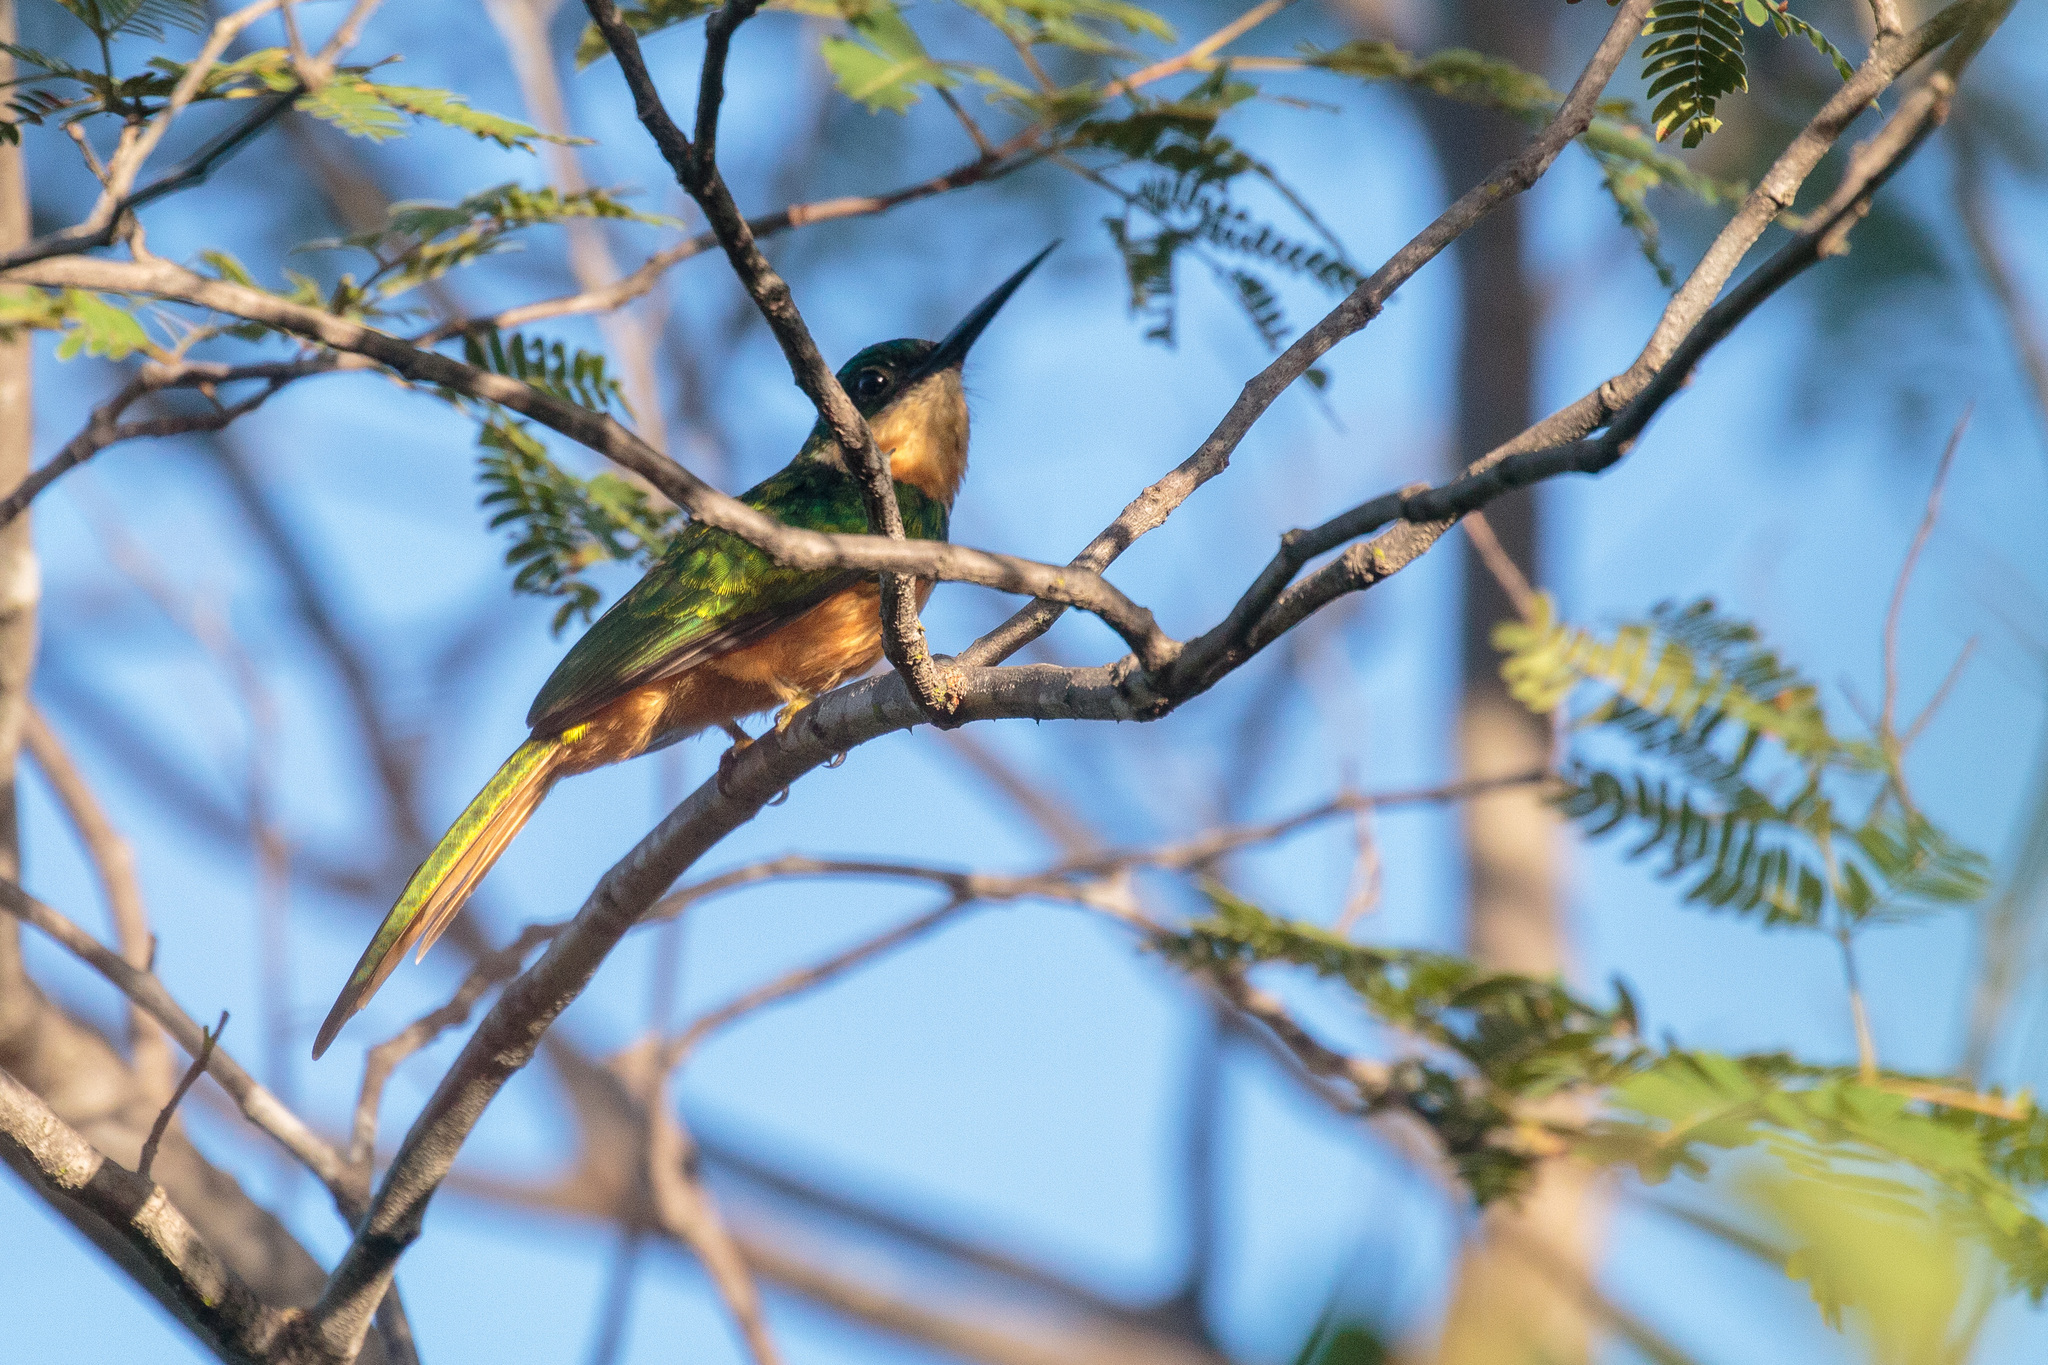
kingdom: Animalia
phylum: Chordata
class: Aves
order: Piciformes
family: Galbulidae
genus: Galbula
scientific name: Galbula ruficauda
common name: Rufous-tailed jacamar
